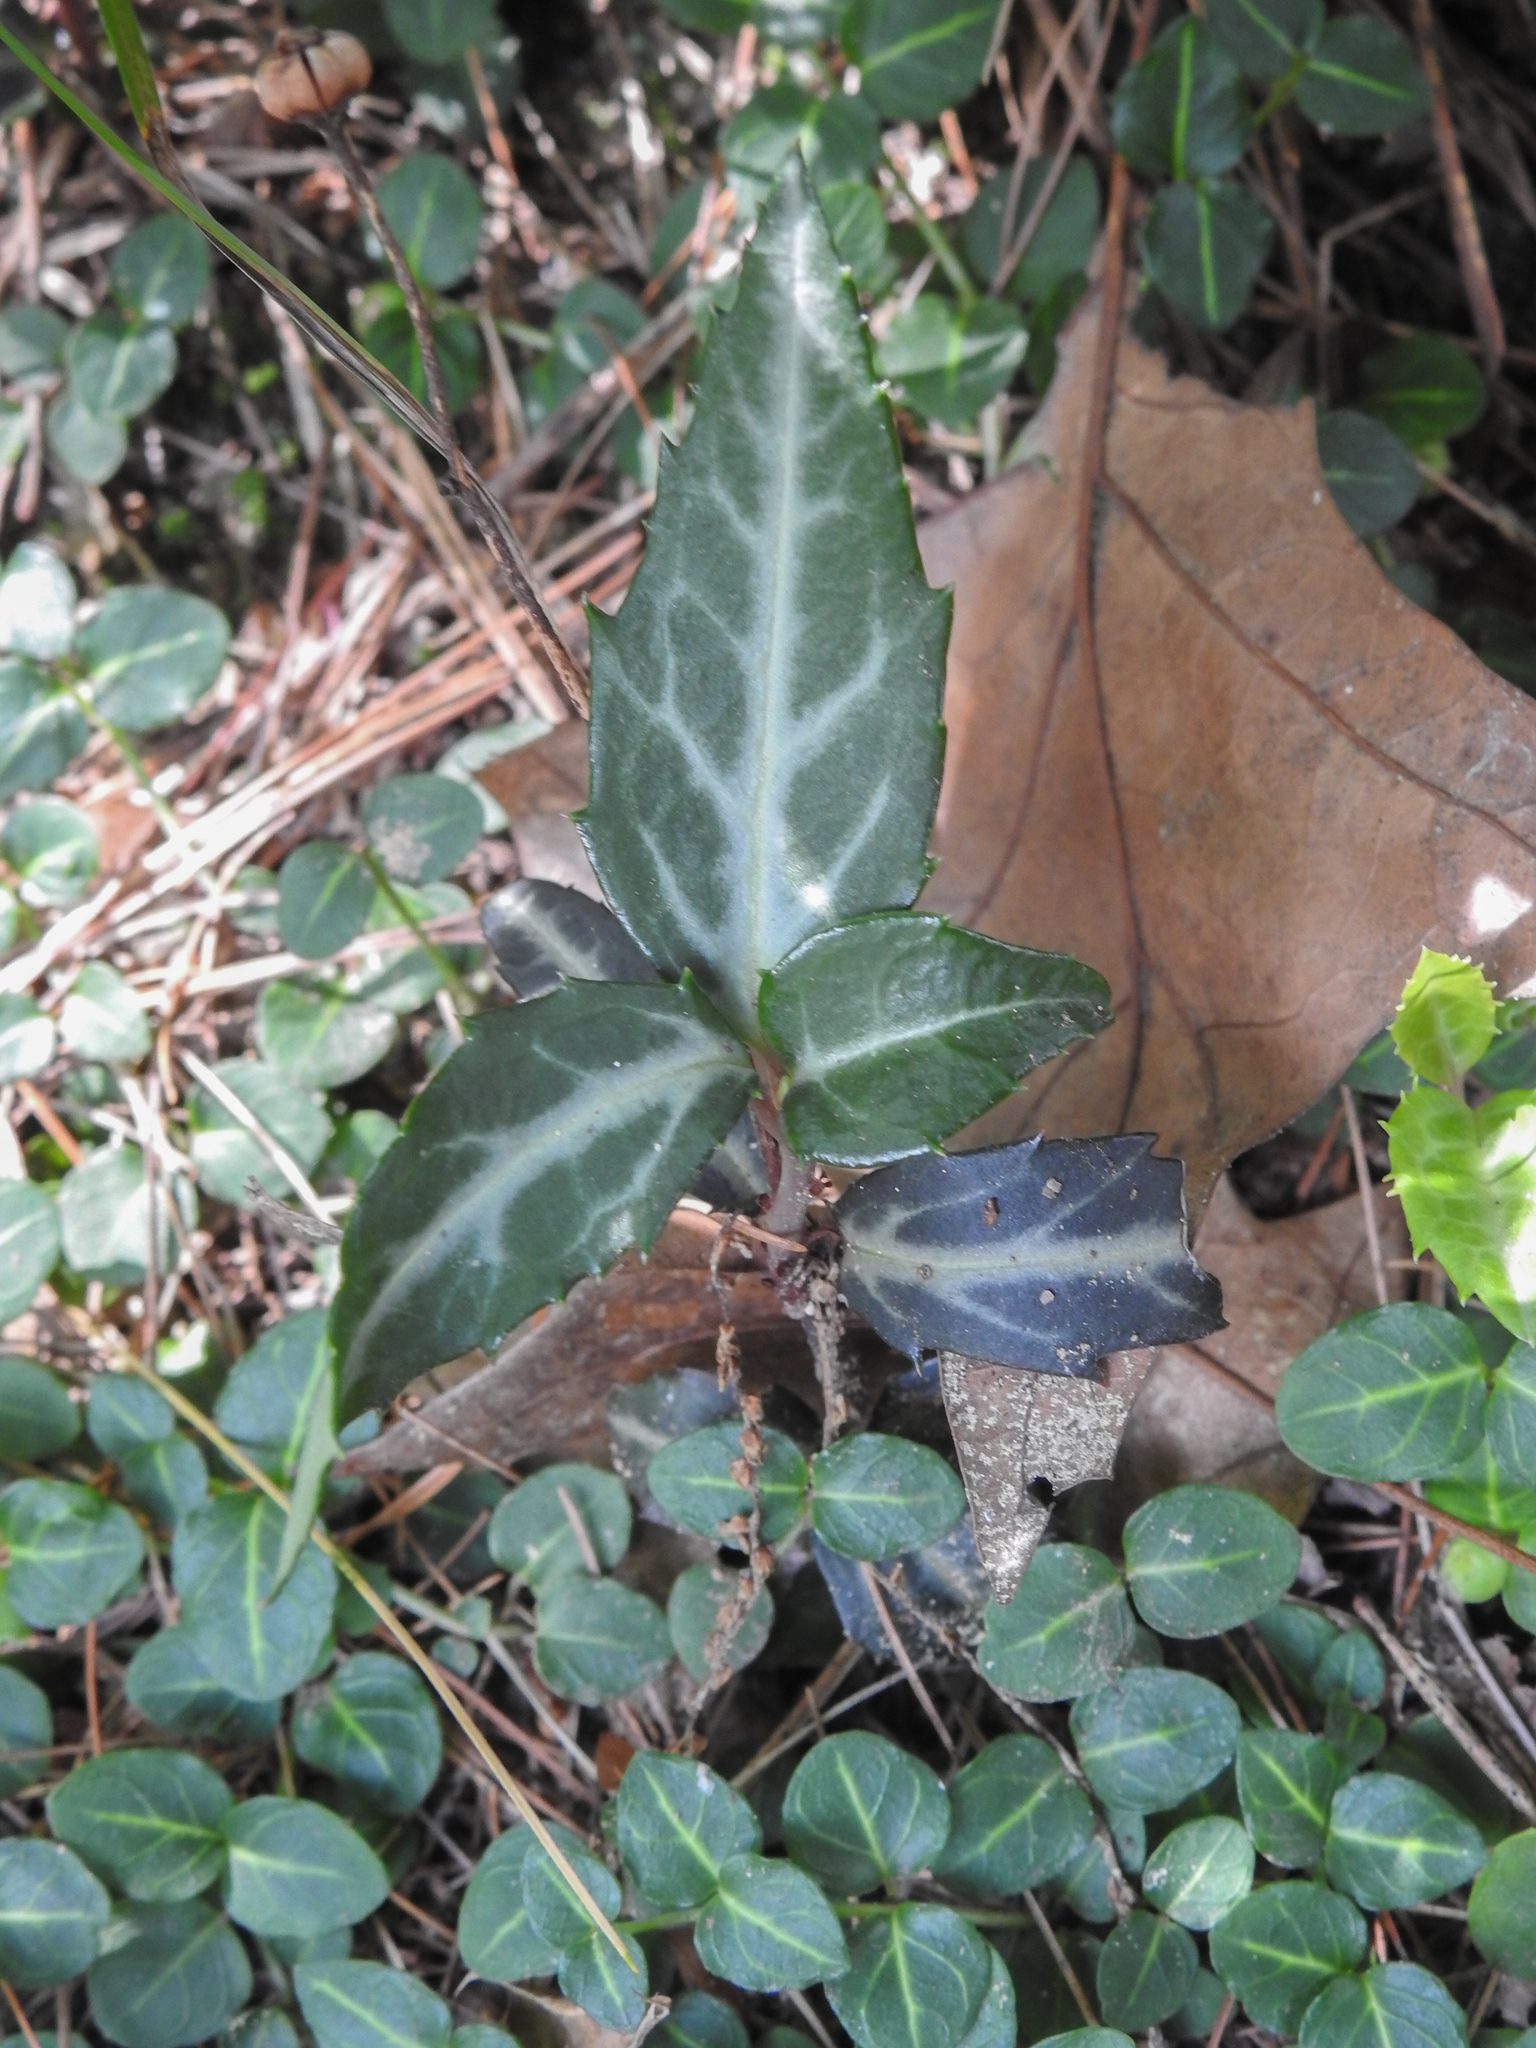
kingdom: Plantae
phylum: Tracheophyta
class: Magnoliopsida
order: Ericales
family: Ericaceae
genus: Chimaphila
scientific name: Chimaphila maculata
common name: Spotted pipsissewa
